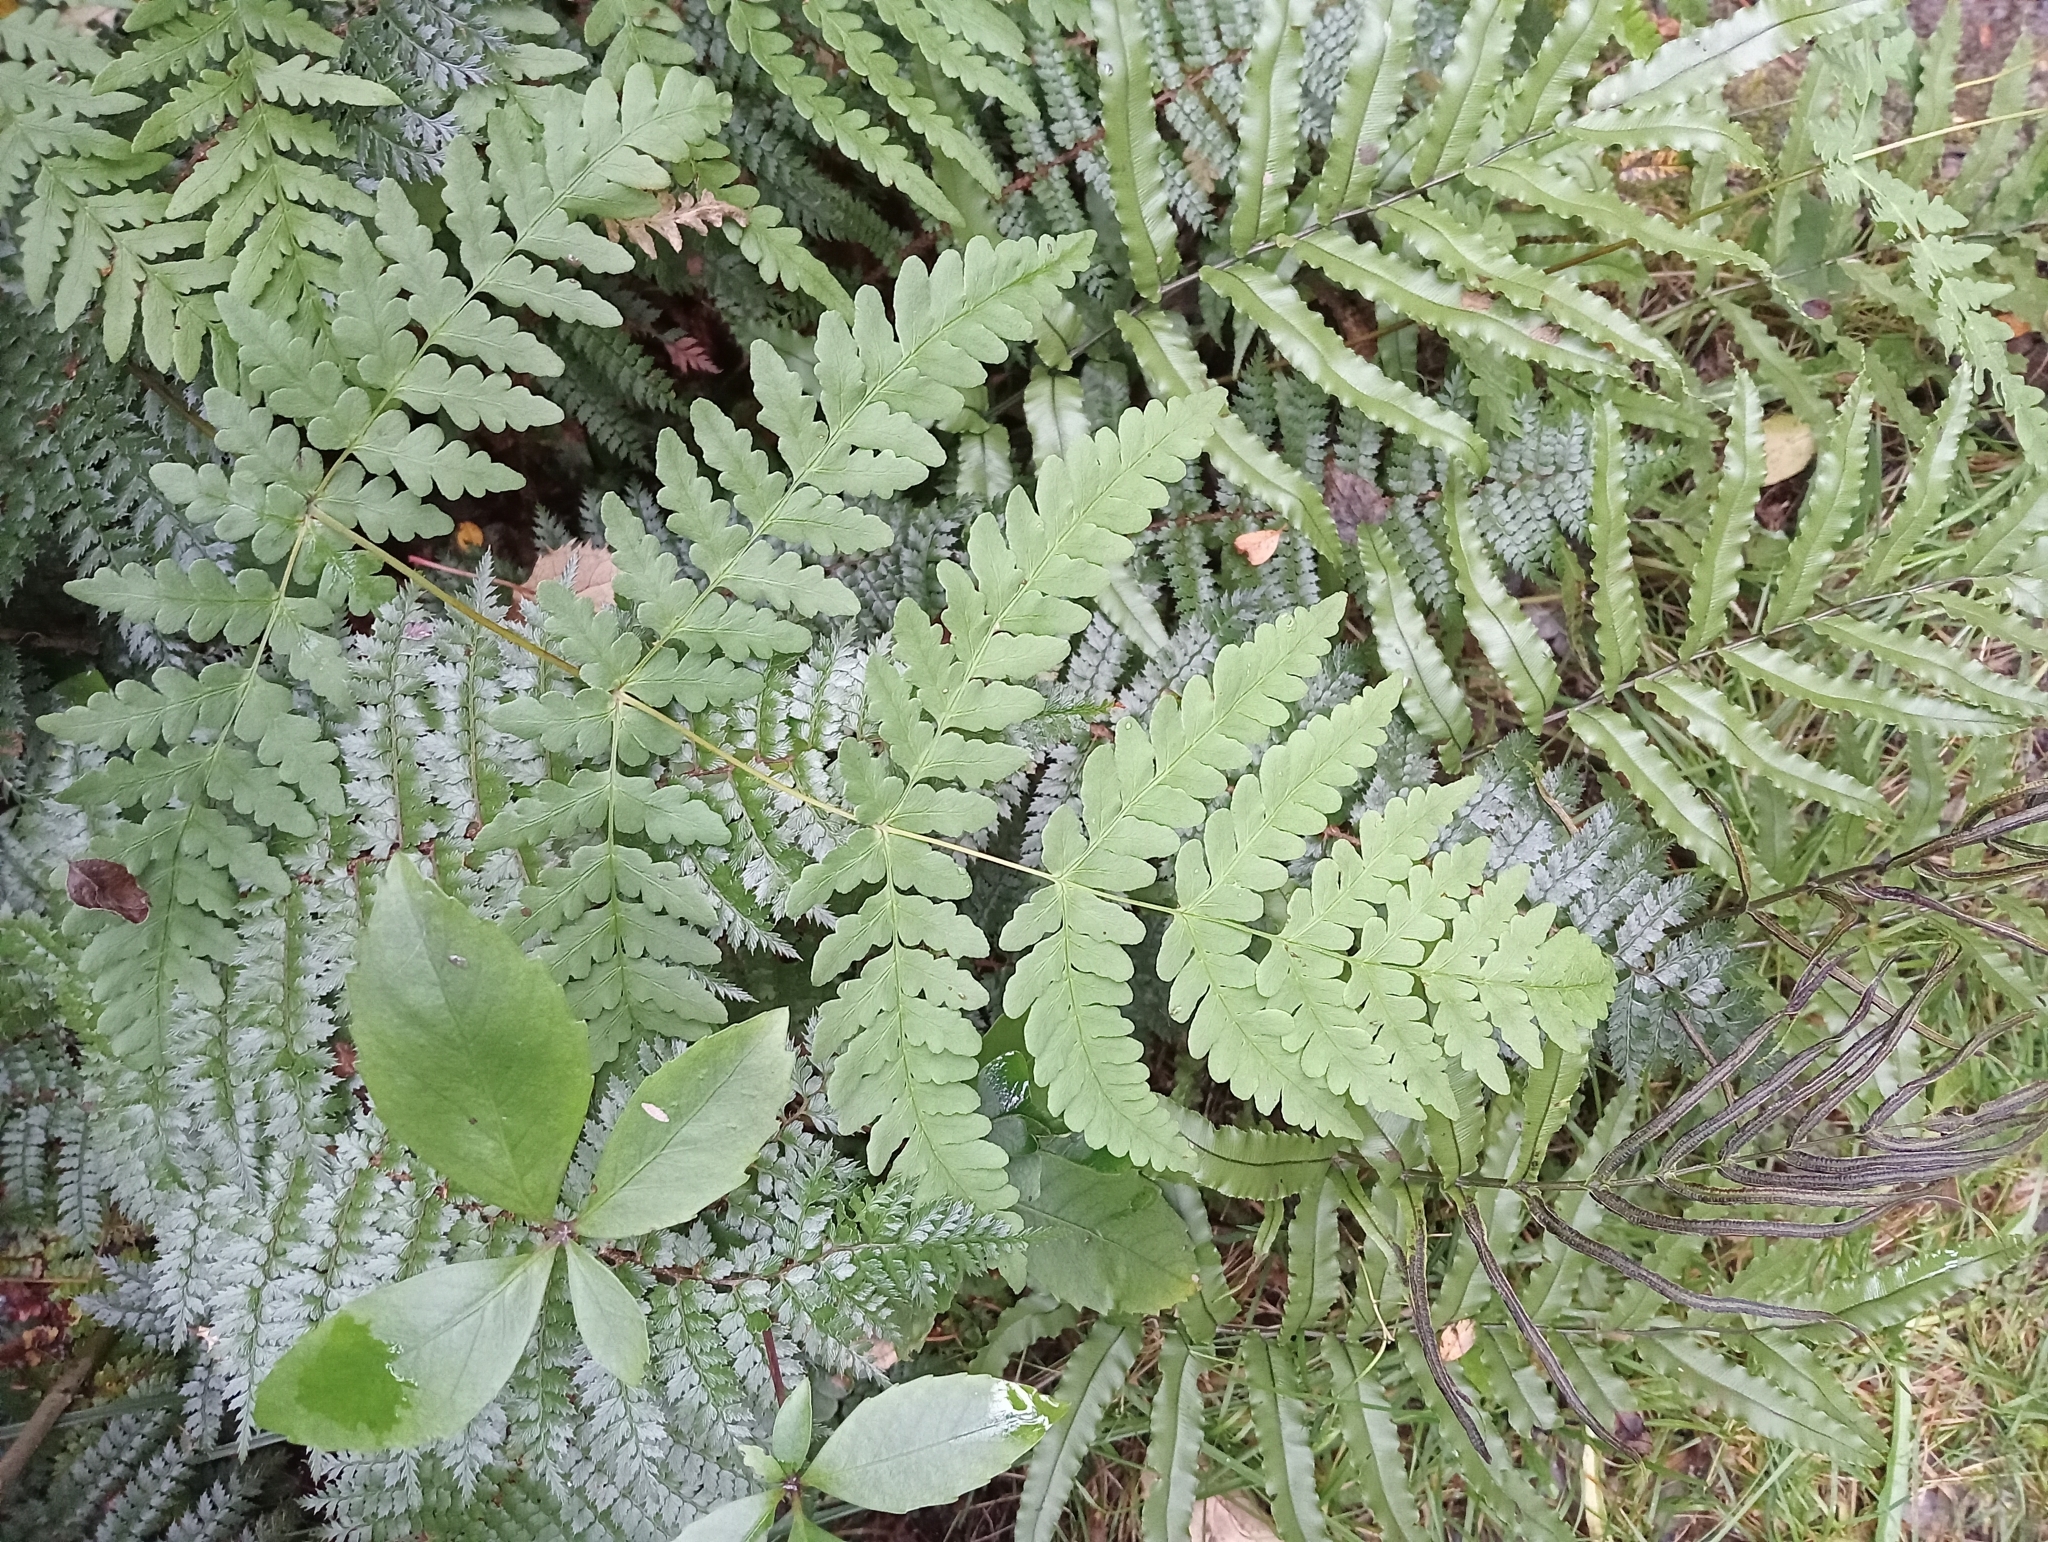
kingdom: Plantae
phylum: Tracheophyta
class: Polypodiopsida
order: Polypodiales
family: Dennstaedtiaceae
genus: Histiopteris
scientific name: Histiopteris incisa
